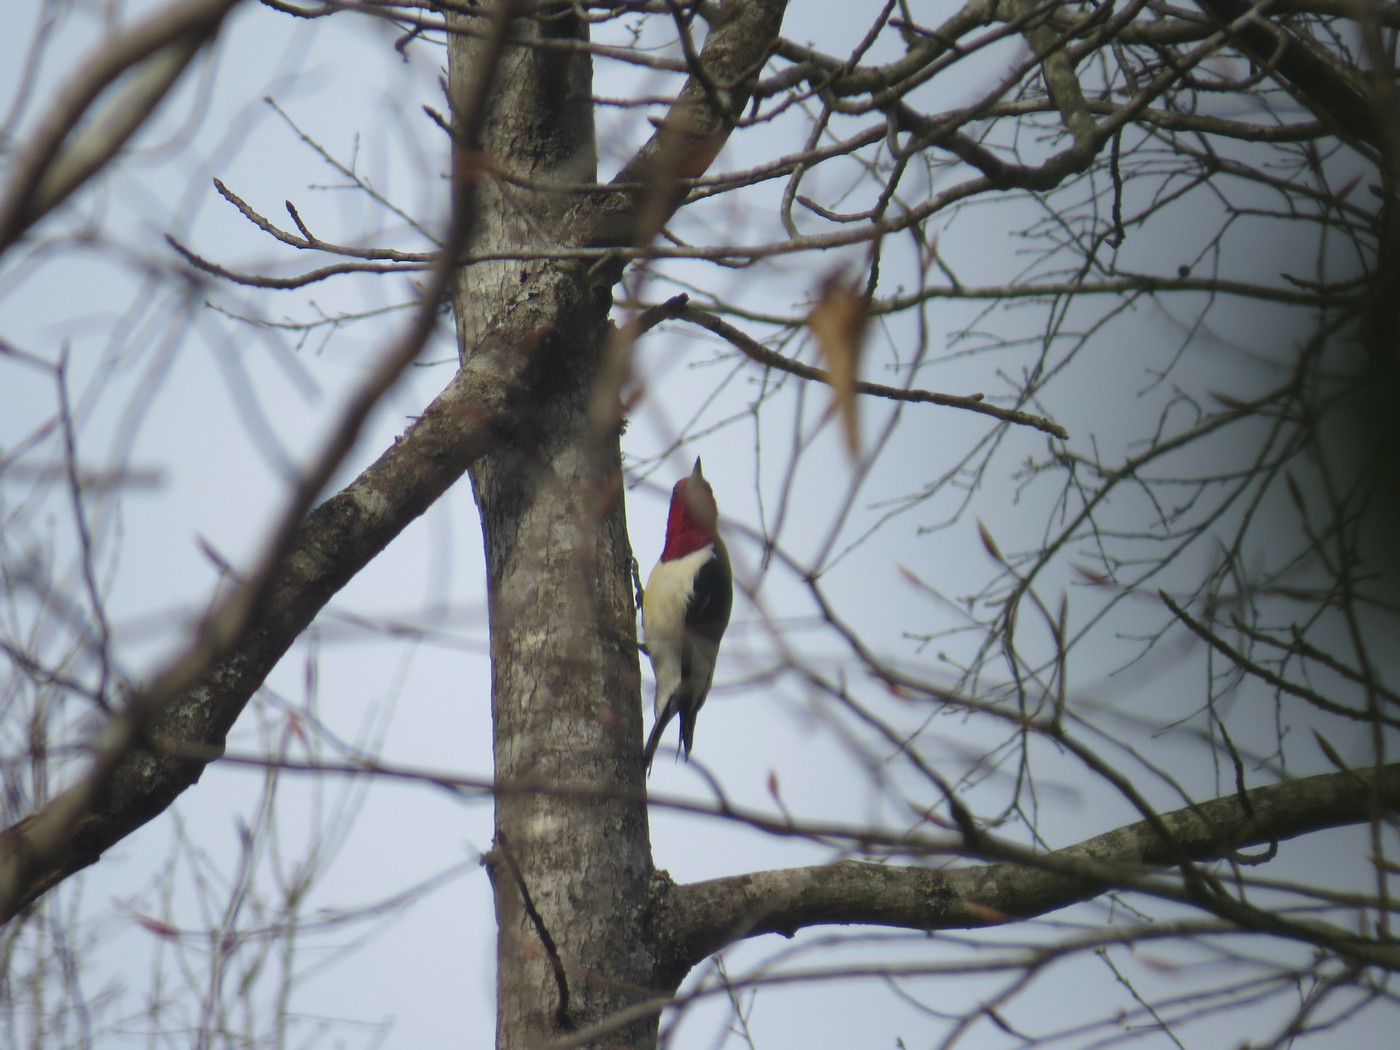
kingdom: Animalia
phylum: Chordata
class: Aves
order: Piciformes
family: Picidae
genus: Melanerpes
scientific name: Melanerpes erythrocephalus
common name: Red-headed woodpecker
